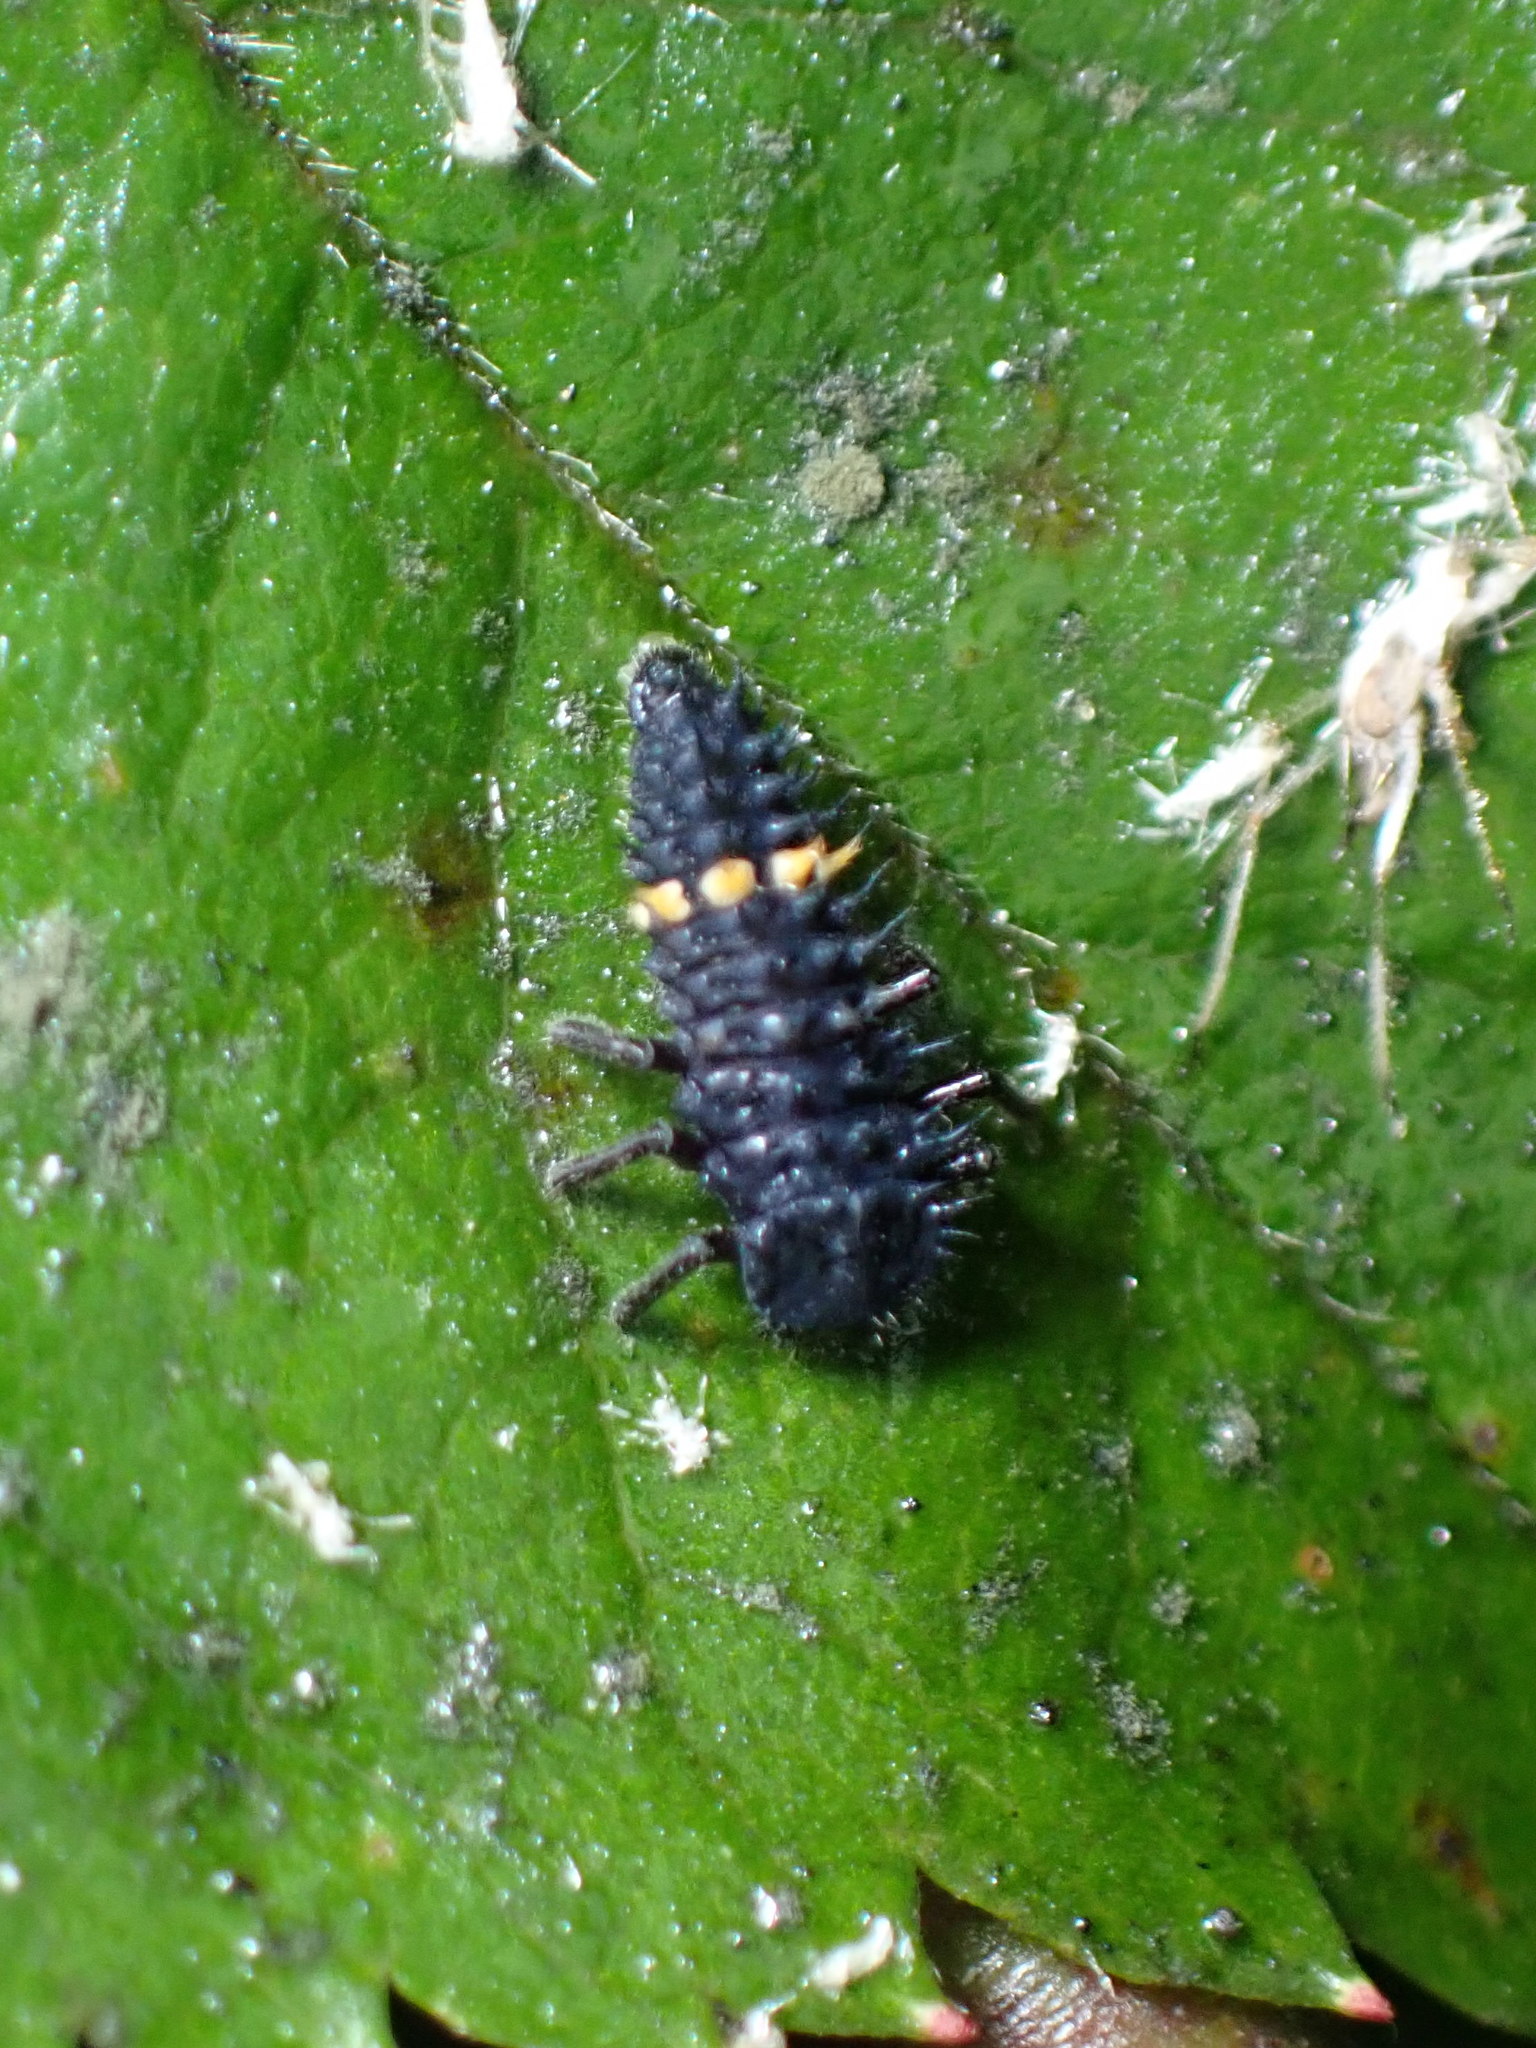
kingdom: Animalia
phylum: Arthropoda
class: Insecta
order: Coleoptera
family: Coccinellidae
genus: Harmonia
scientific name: Harmonia conformis
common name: Common spotted ladybird beetle
